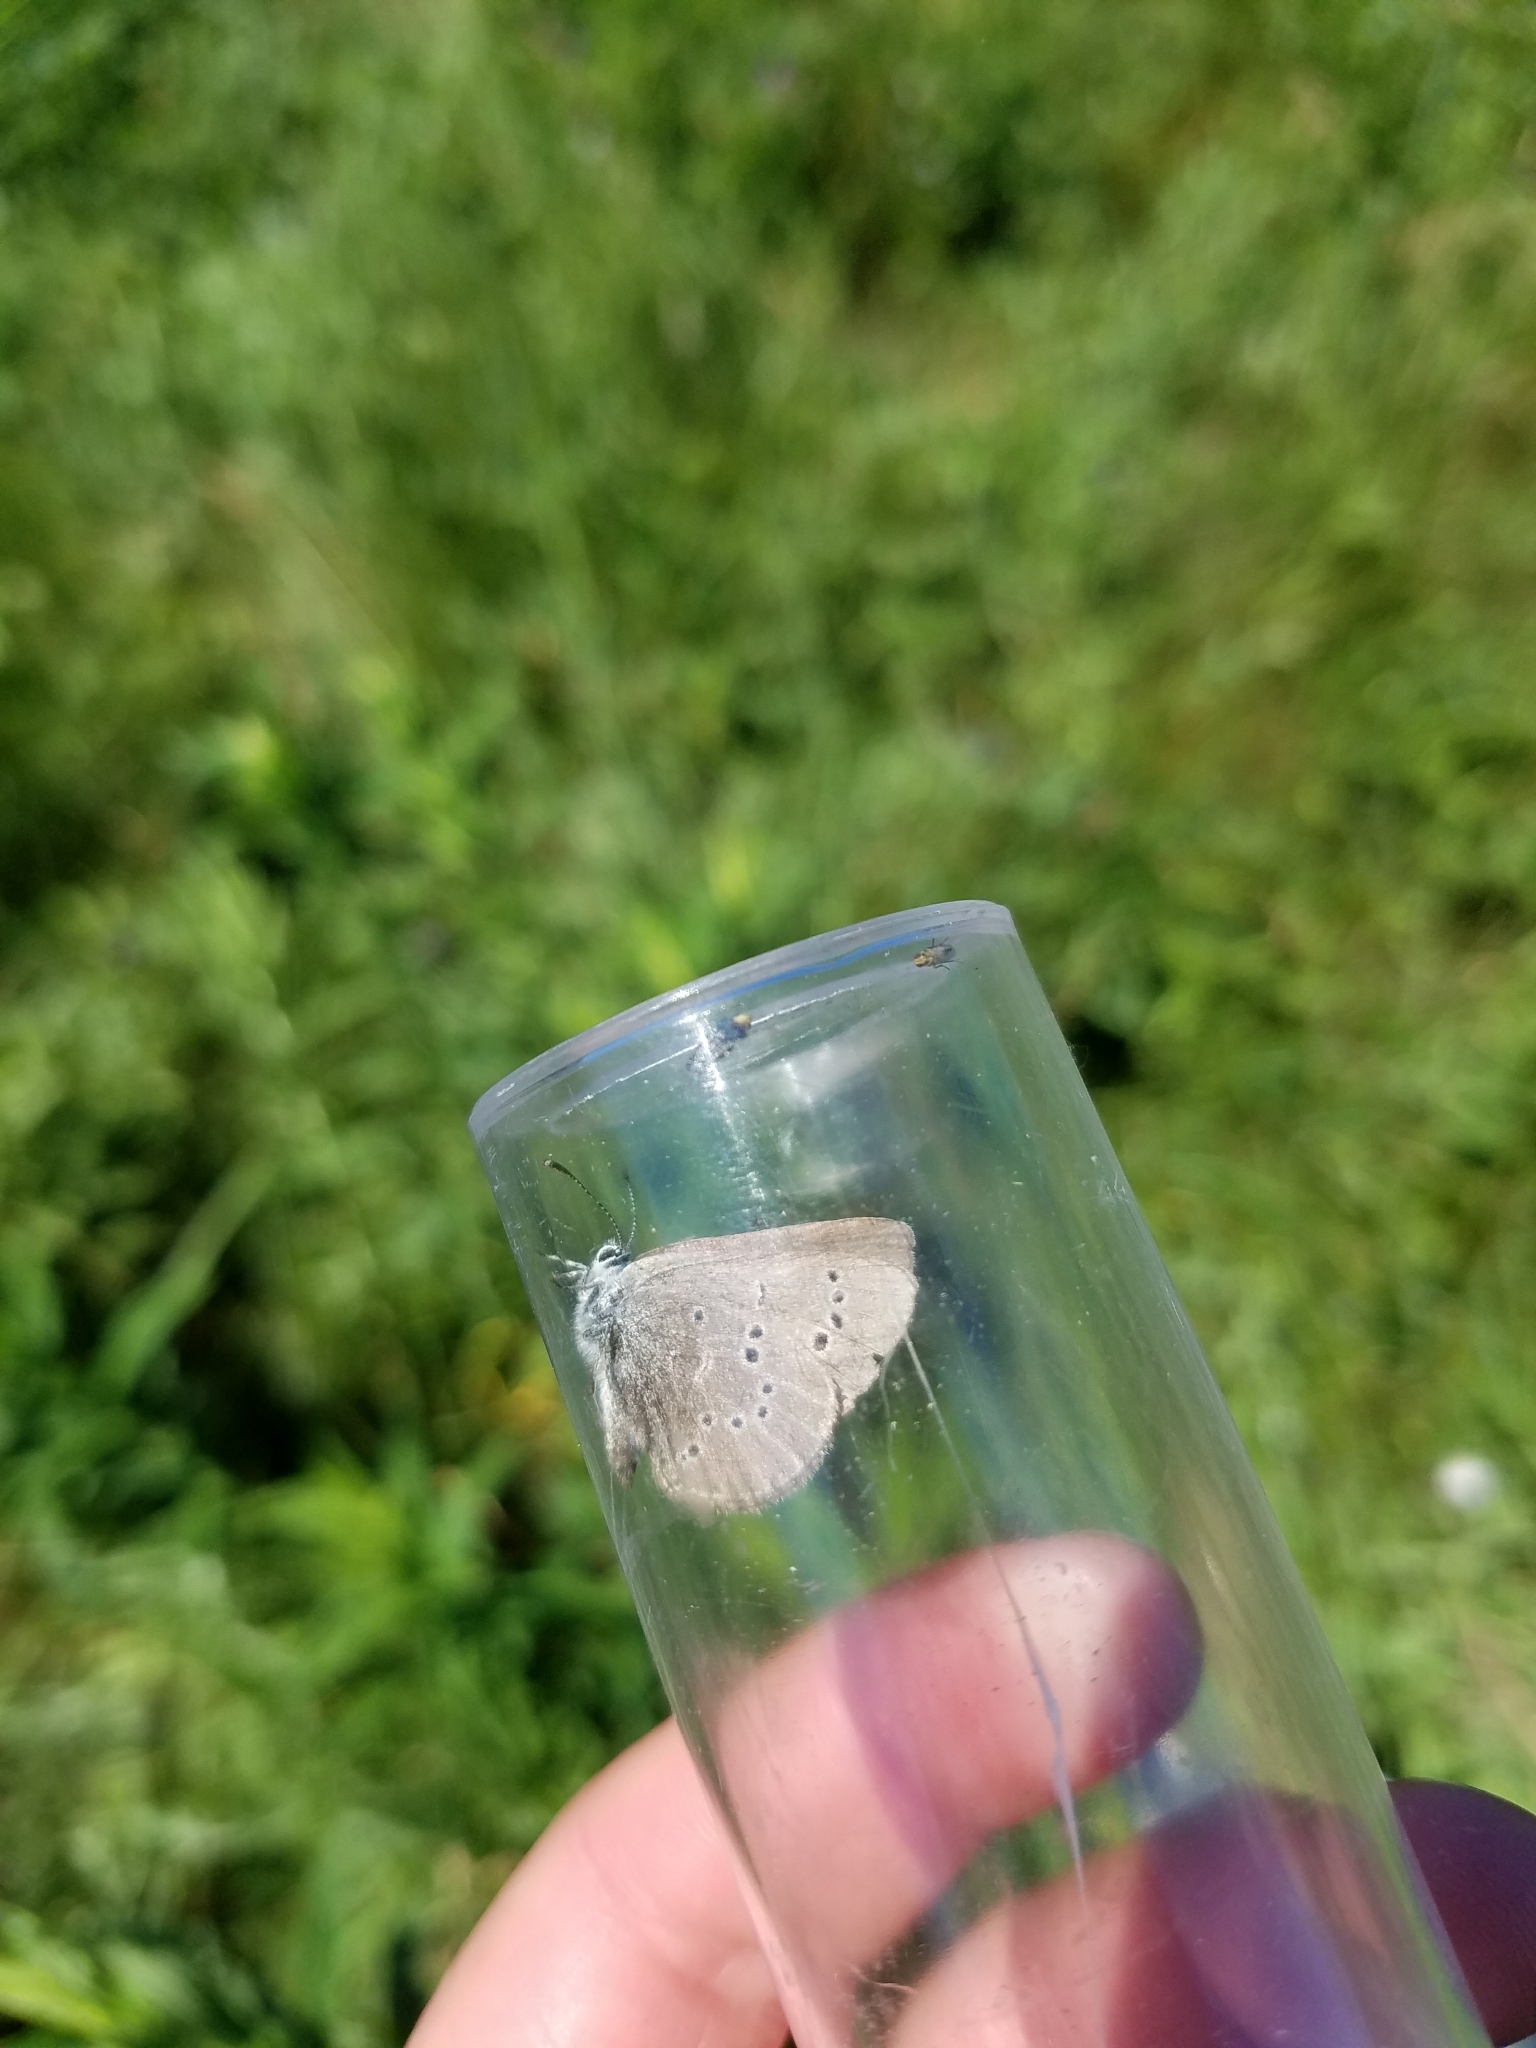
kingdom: Animalia
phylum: Arthropoda
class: Insecta
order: Lepidoptera
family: Lycaenidae
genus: Glaucopsyche
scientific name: Glaucopsyche lygdamus
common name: Silvery blue
